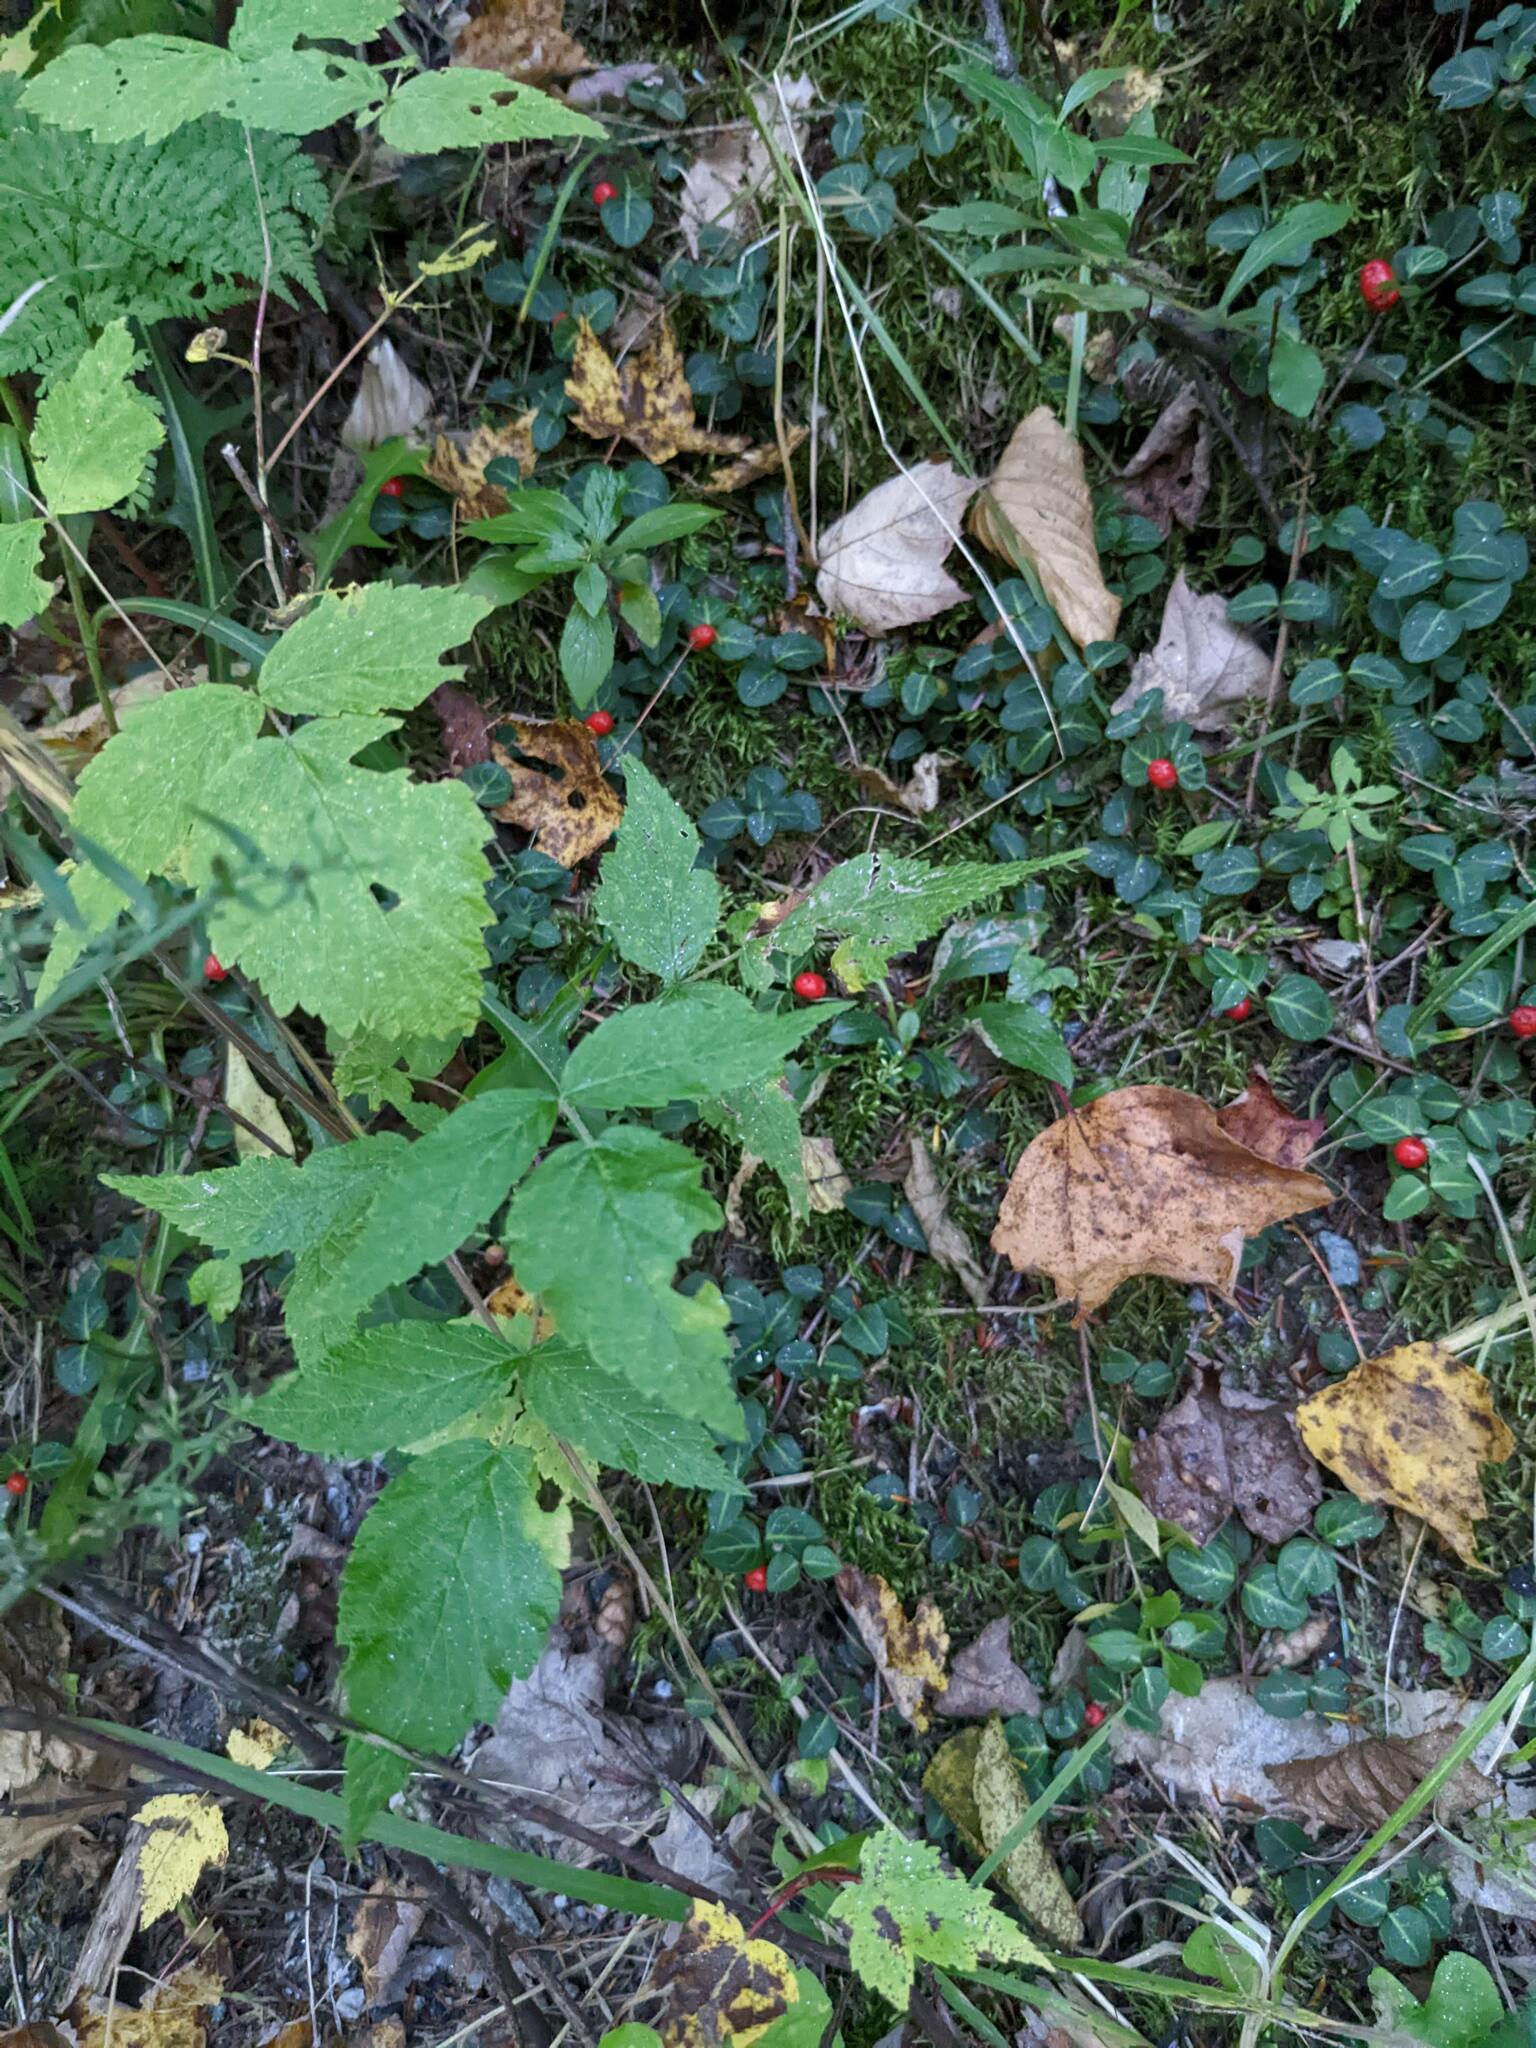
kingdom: Plantae
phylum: Tracheophyta
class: Magnoliopsida
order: Gentianales
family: Rubiaceae
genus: Mitchella
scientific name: Mitchella repens
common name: Partridge-berry
